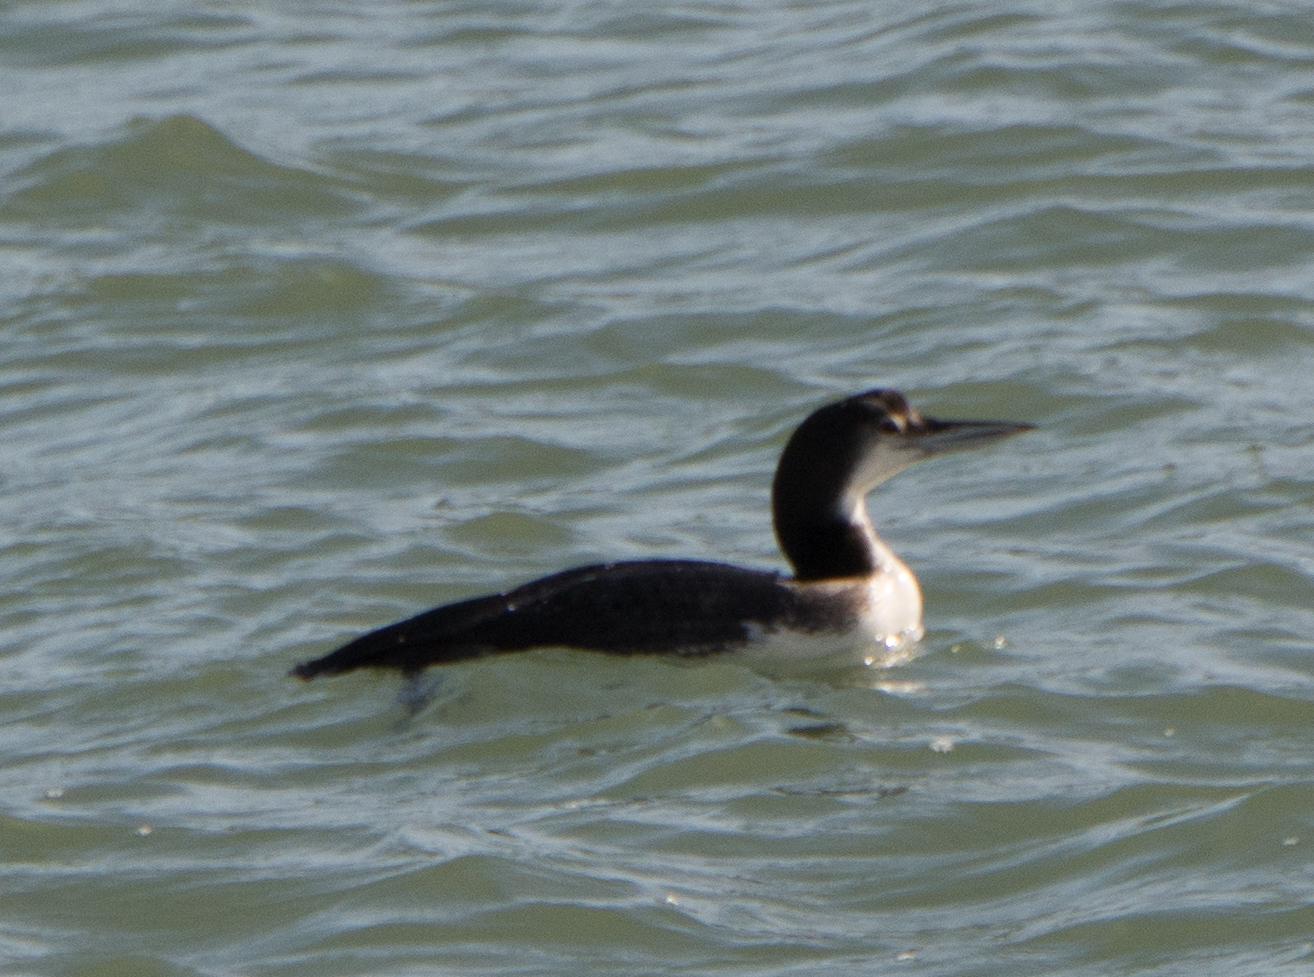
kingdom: Animalia
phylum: Chordata
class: Aves
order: Gaviiformes
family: Gaviidae
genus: Gavia
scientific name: Gavia immer
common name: Common loon
